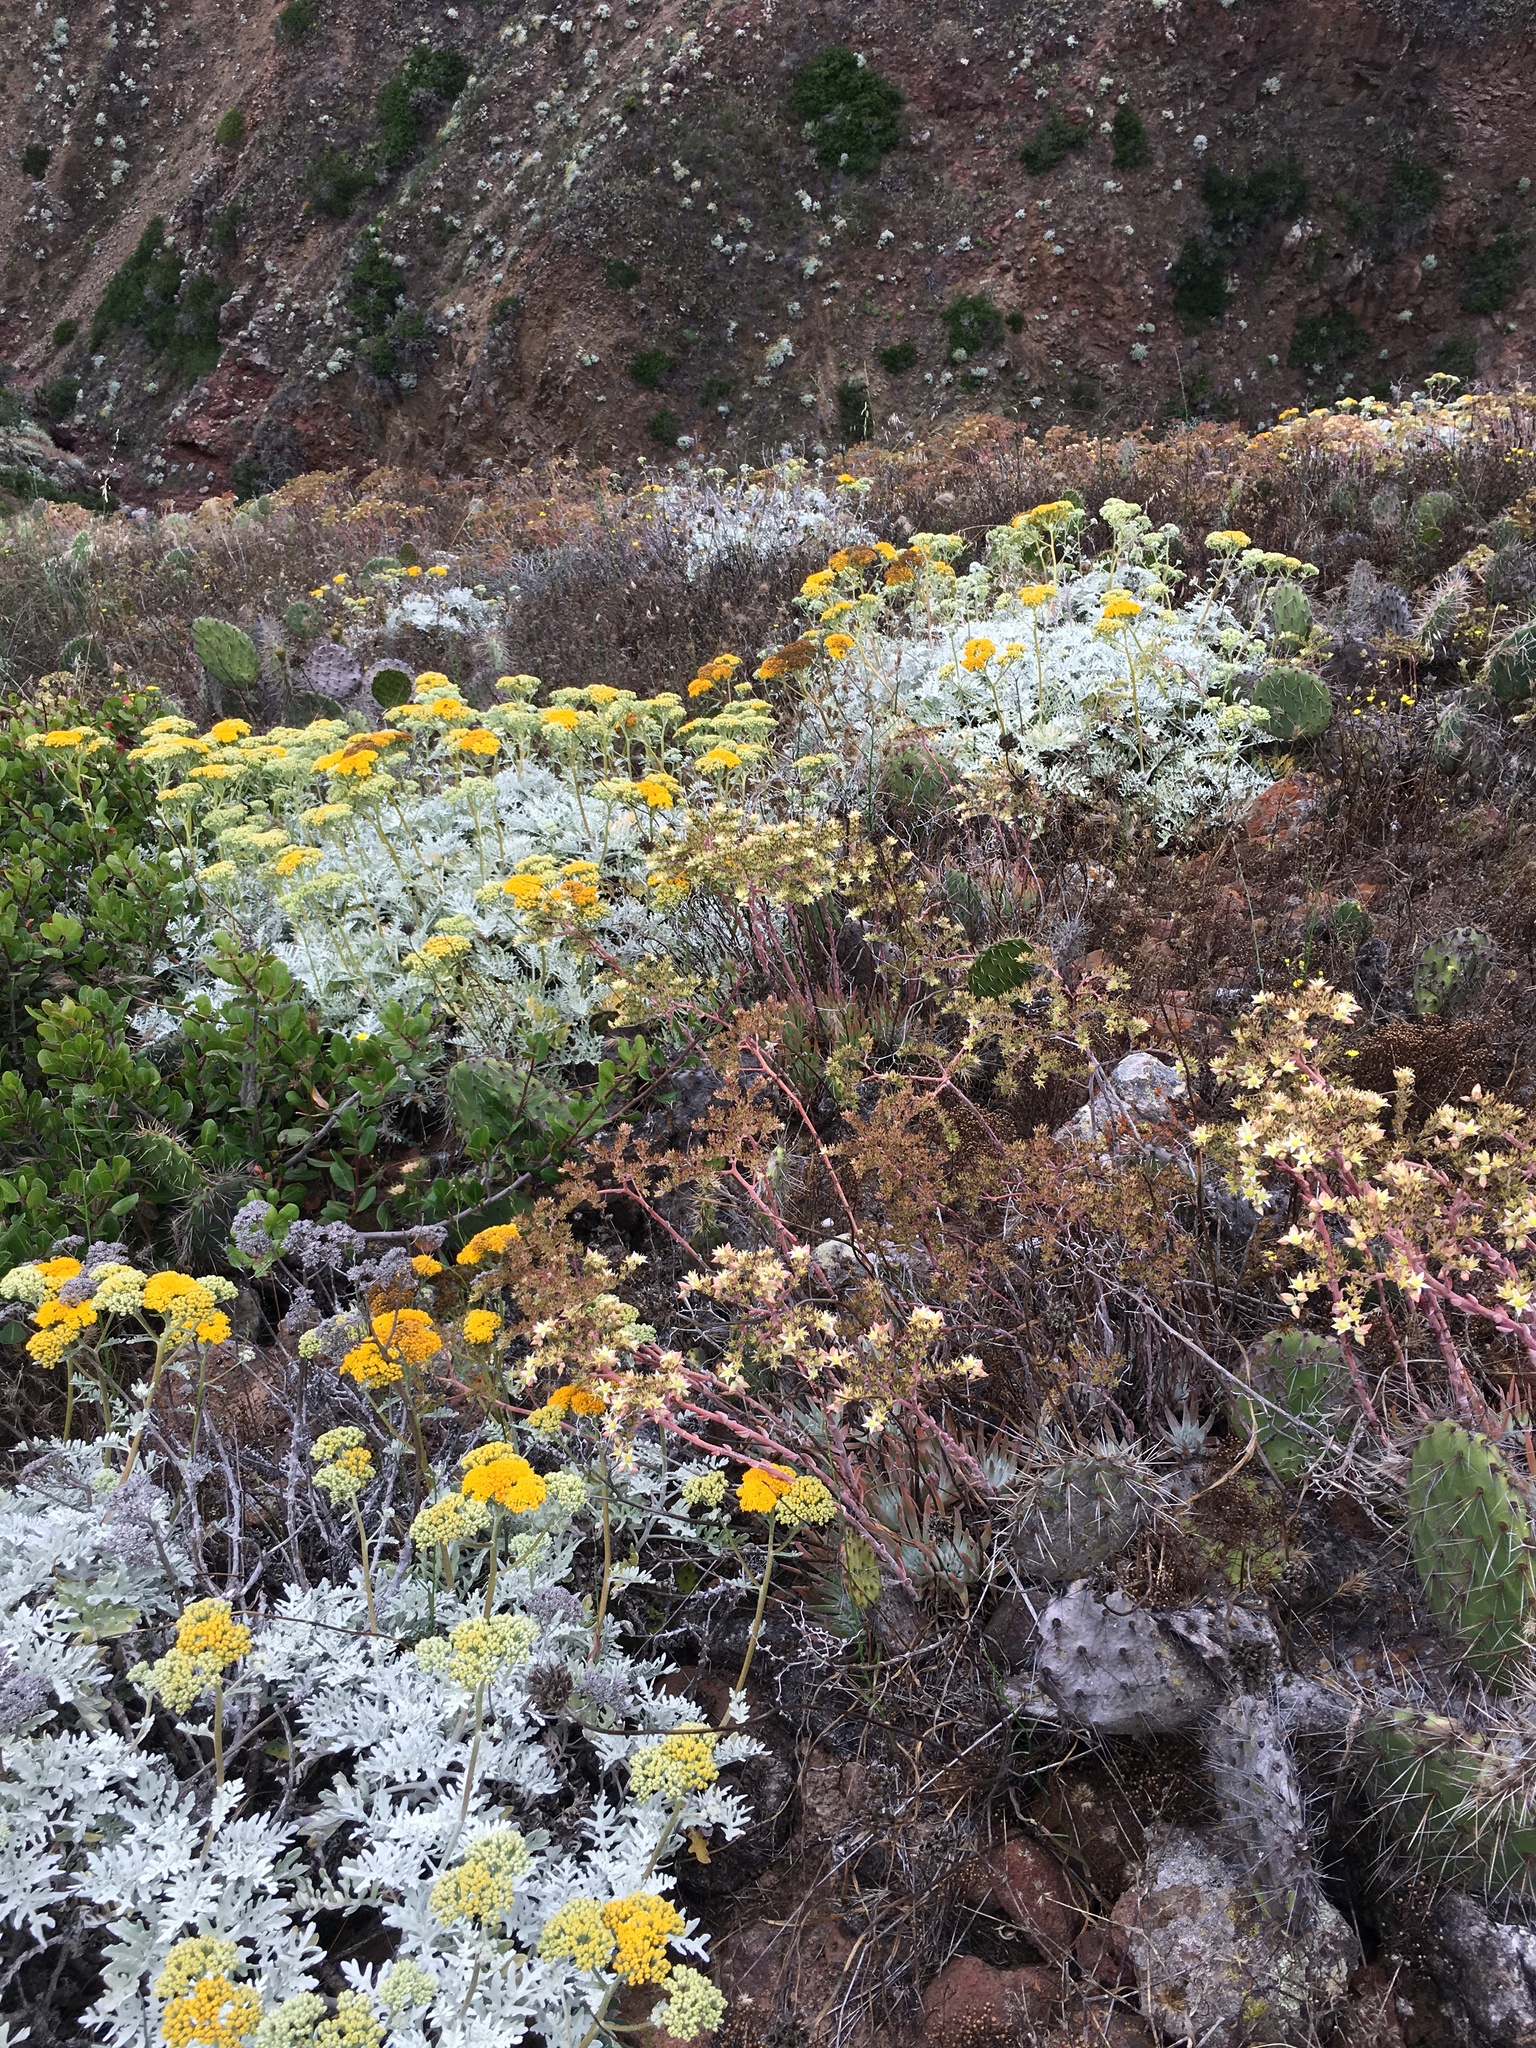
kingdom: Plantae
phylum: Tracheophyta
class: Magnoliopsida
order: Saxifragales
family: Crassulaceae
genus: Dudleya
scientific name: Dudleya virens
